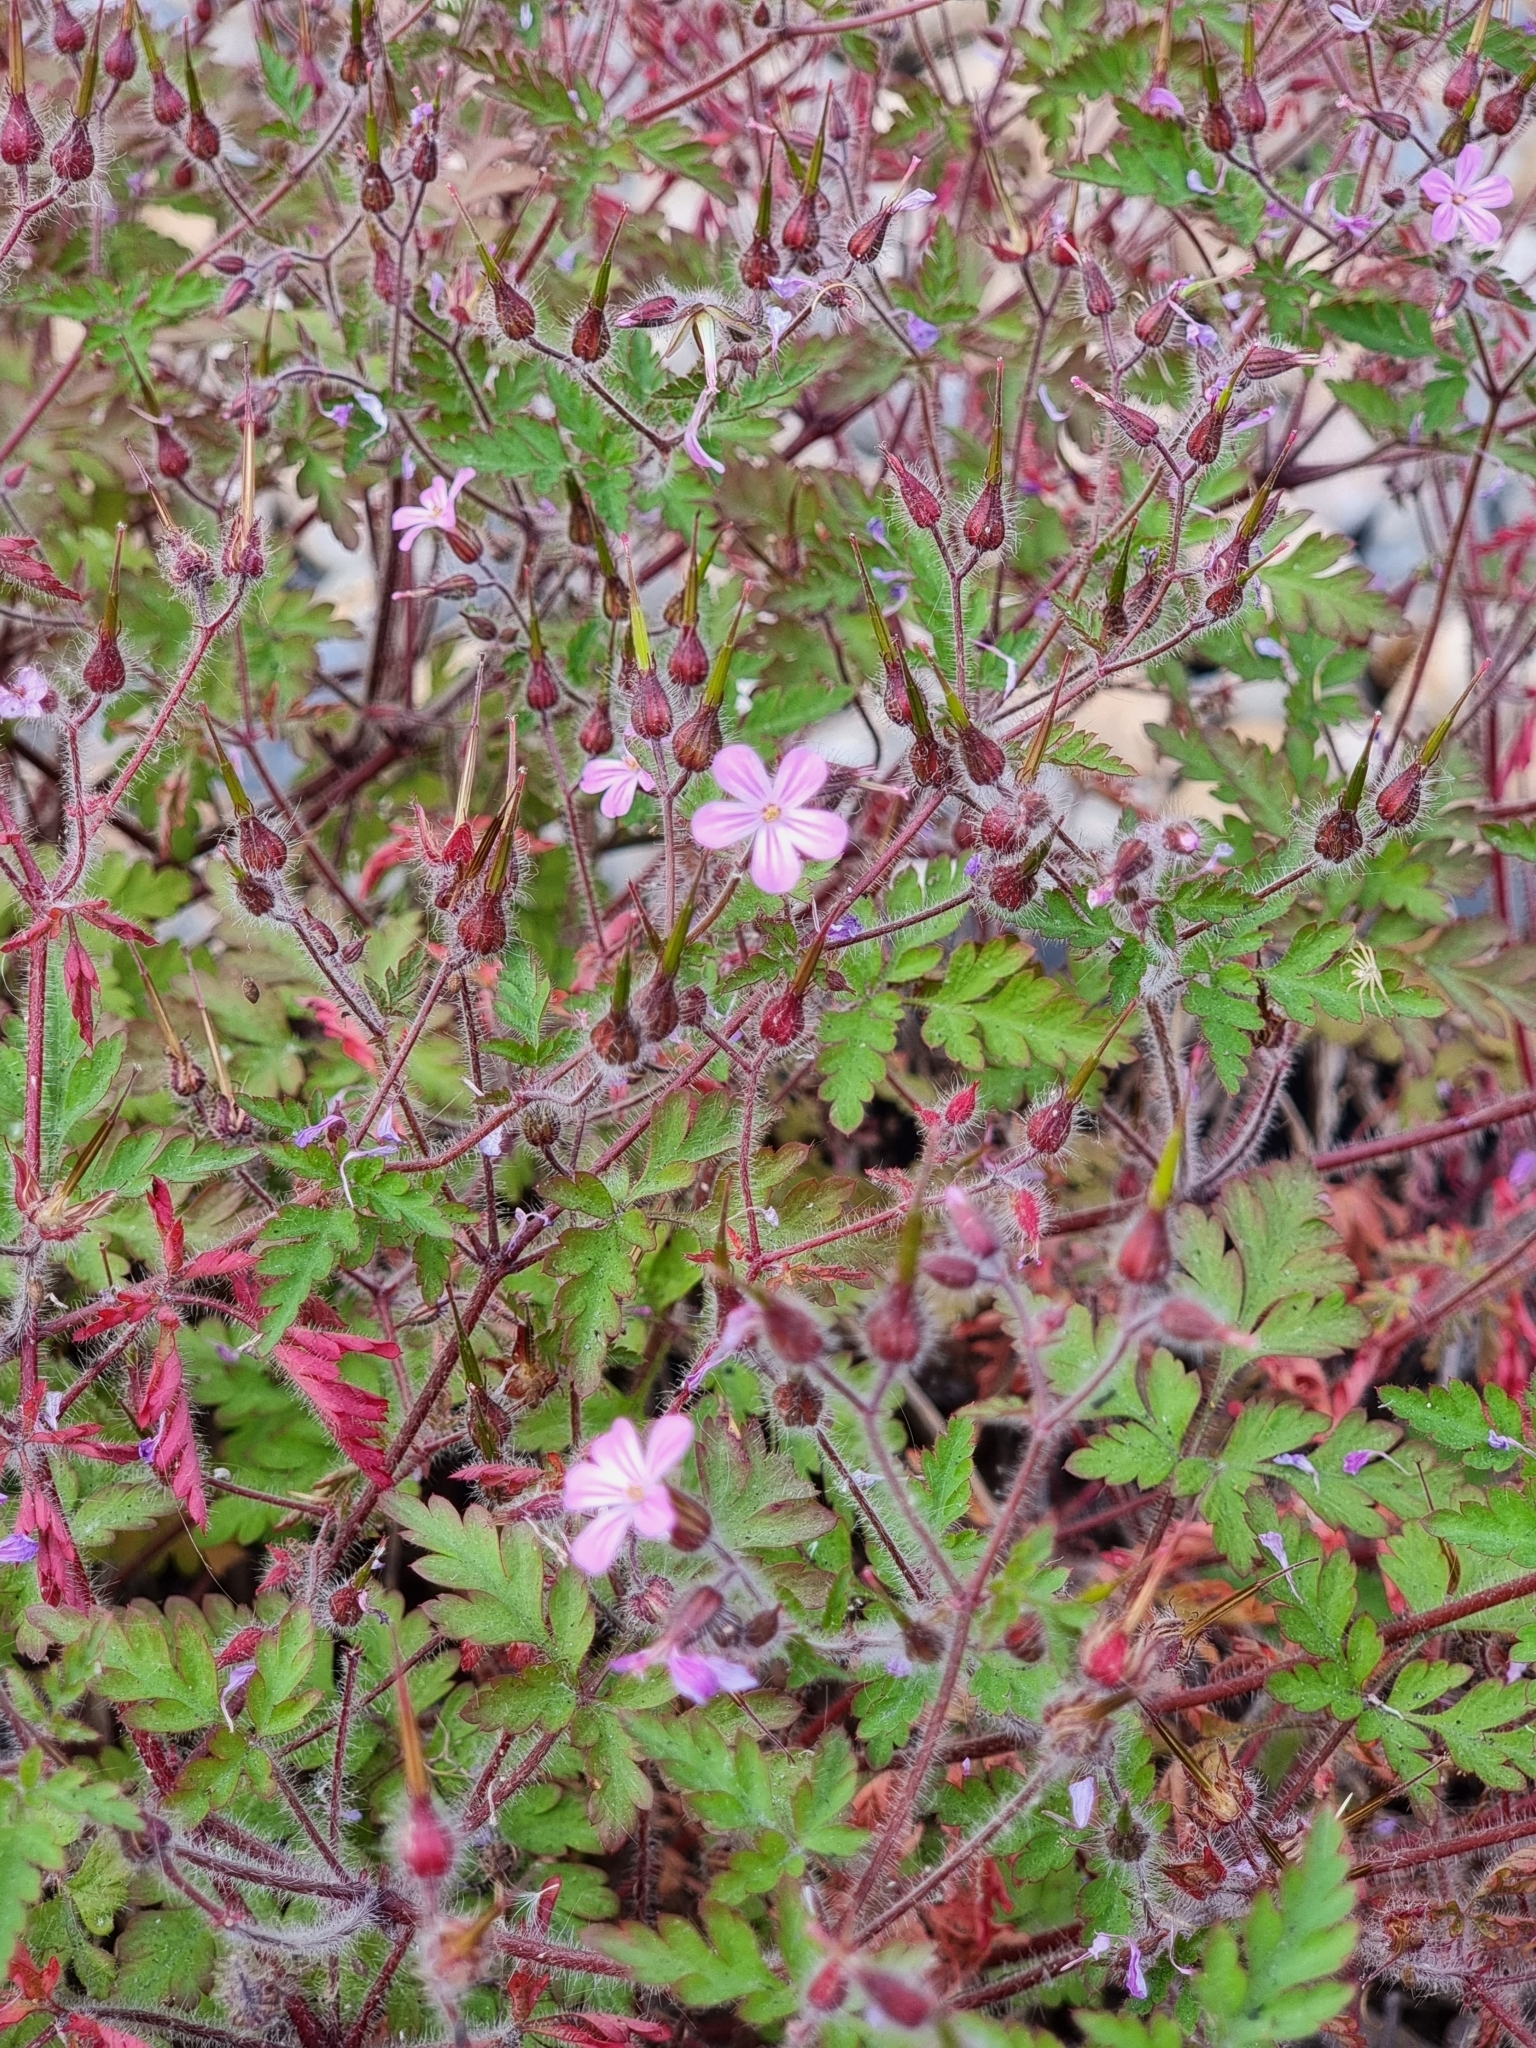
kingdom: Plantae
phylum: Tracheophyta
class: Magnoliopsida
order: Geraniales
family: Geraniaceae
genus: Geranium
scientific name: Geranium robertianum
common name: Herb-robert
